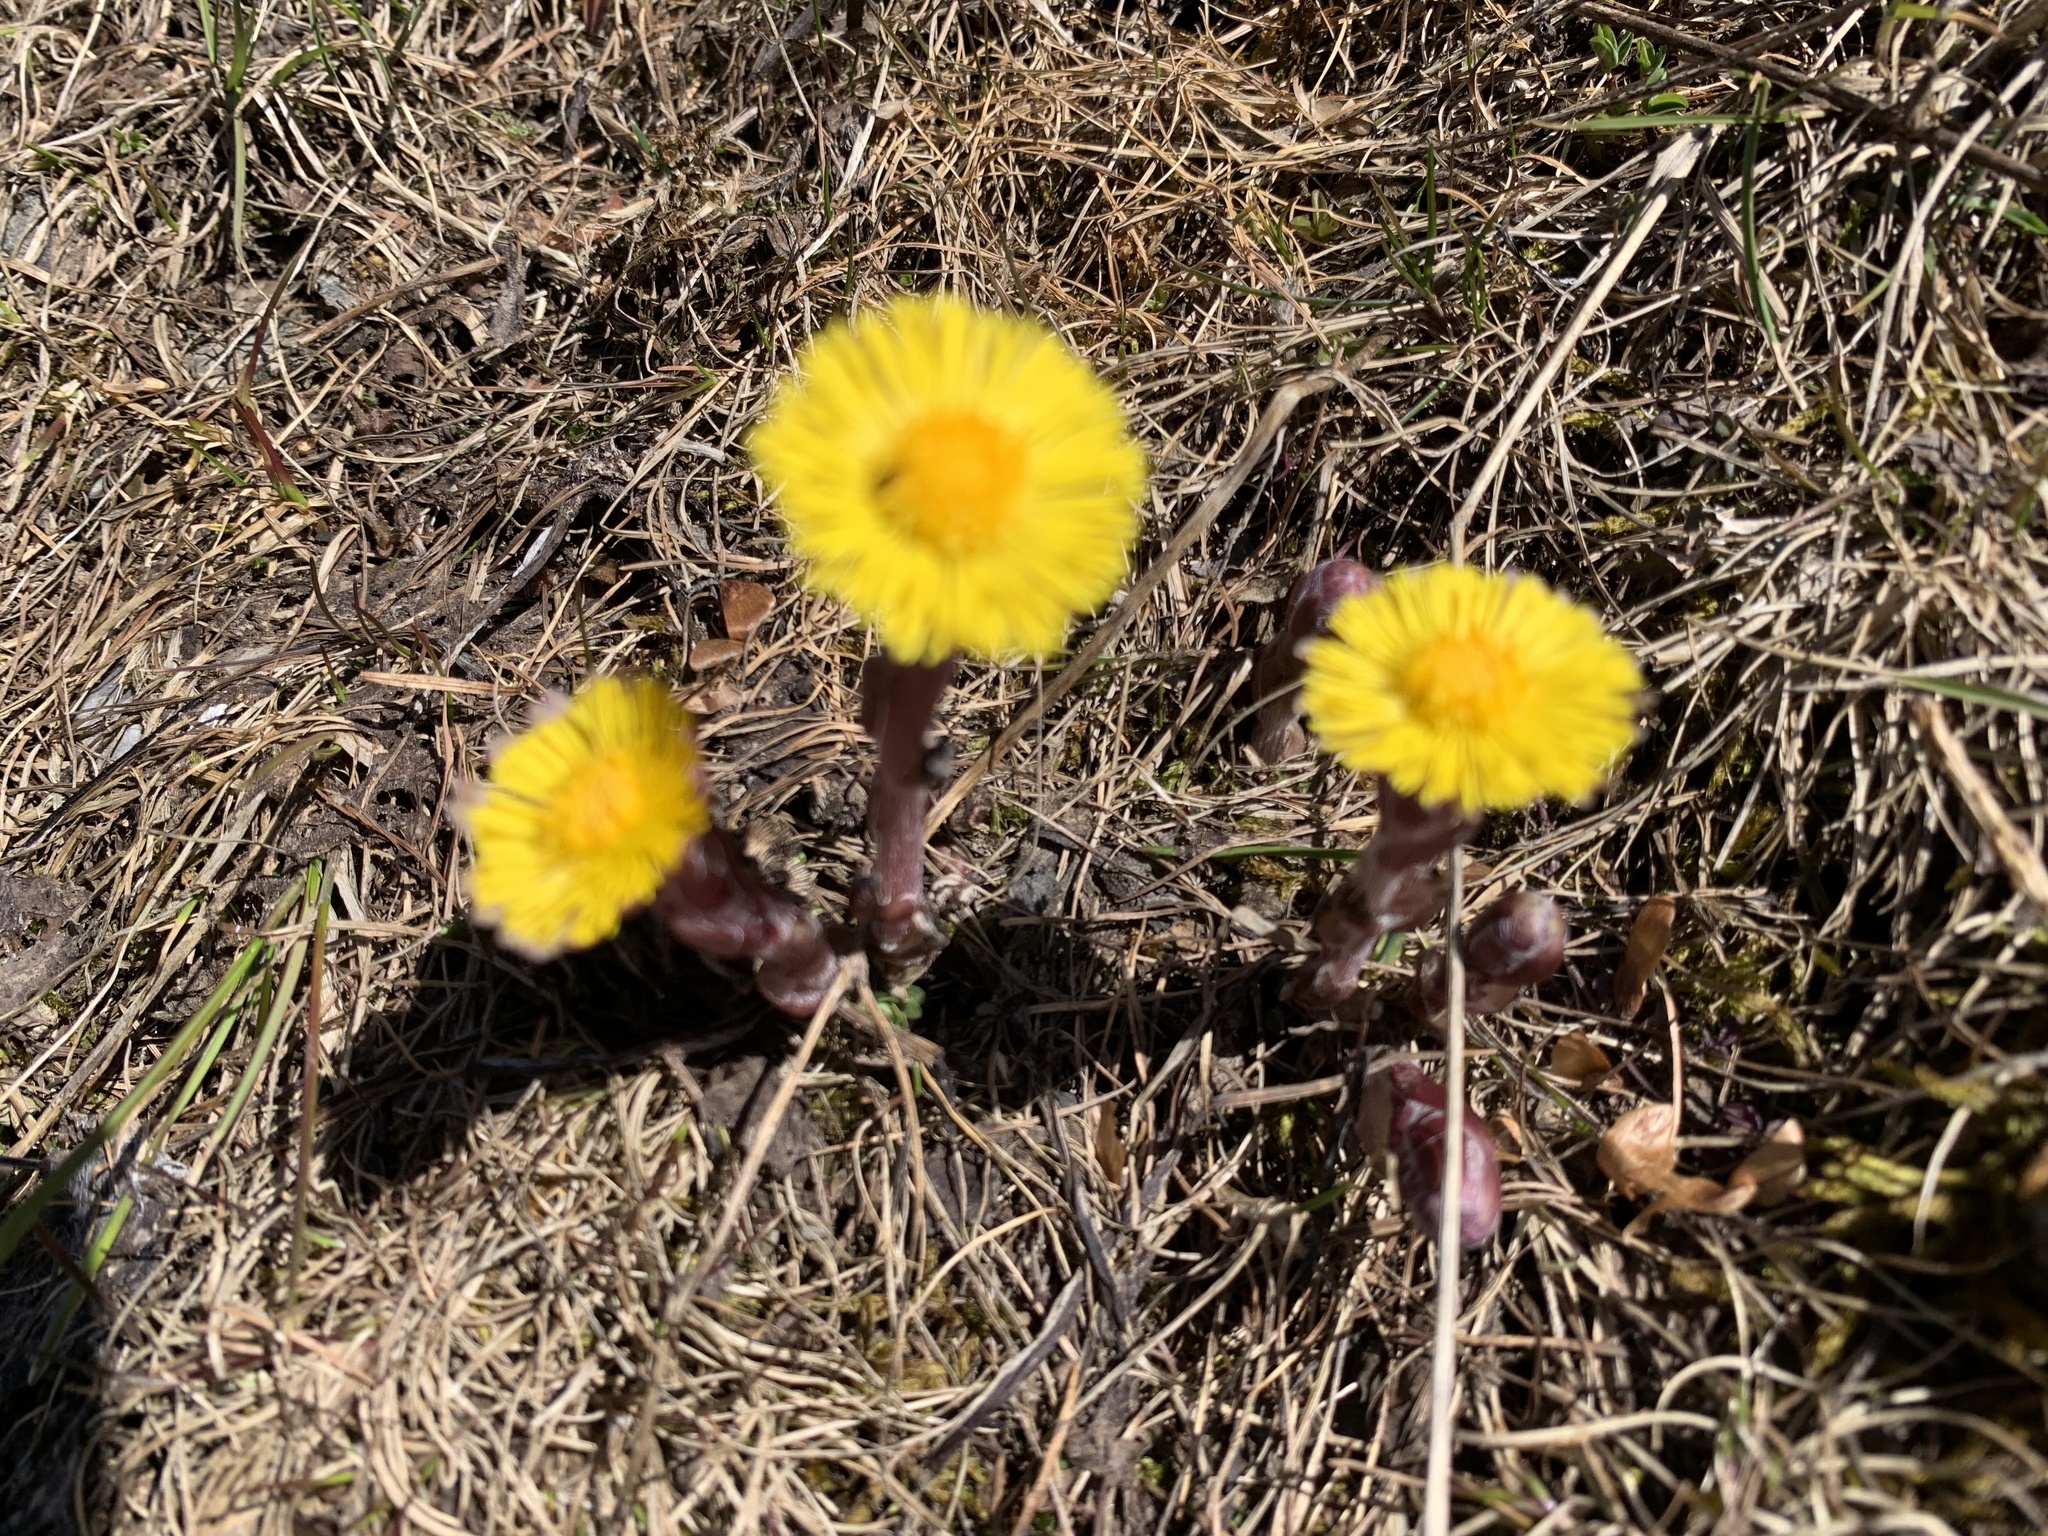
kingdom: Plantae
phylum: Tracheophyta
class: Magnoliopsida
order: Asterales
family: Asteraceae
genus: Tussilago
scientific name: Tussilago farfara
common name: Coltsfoot
